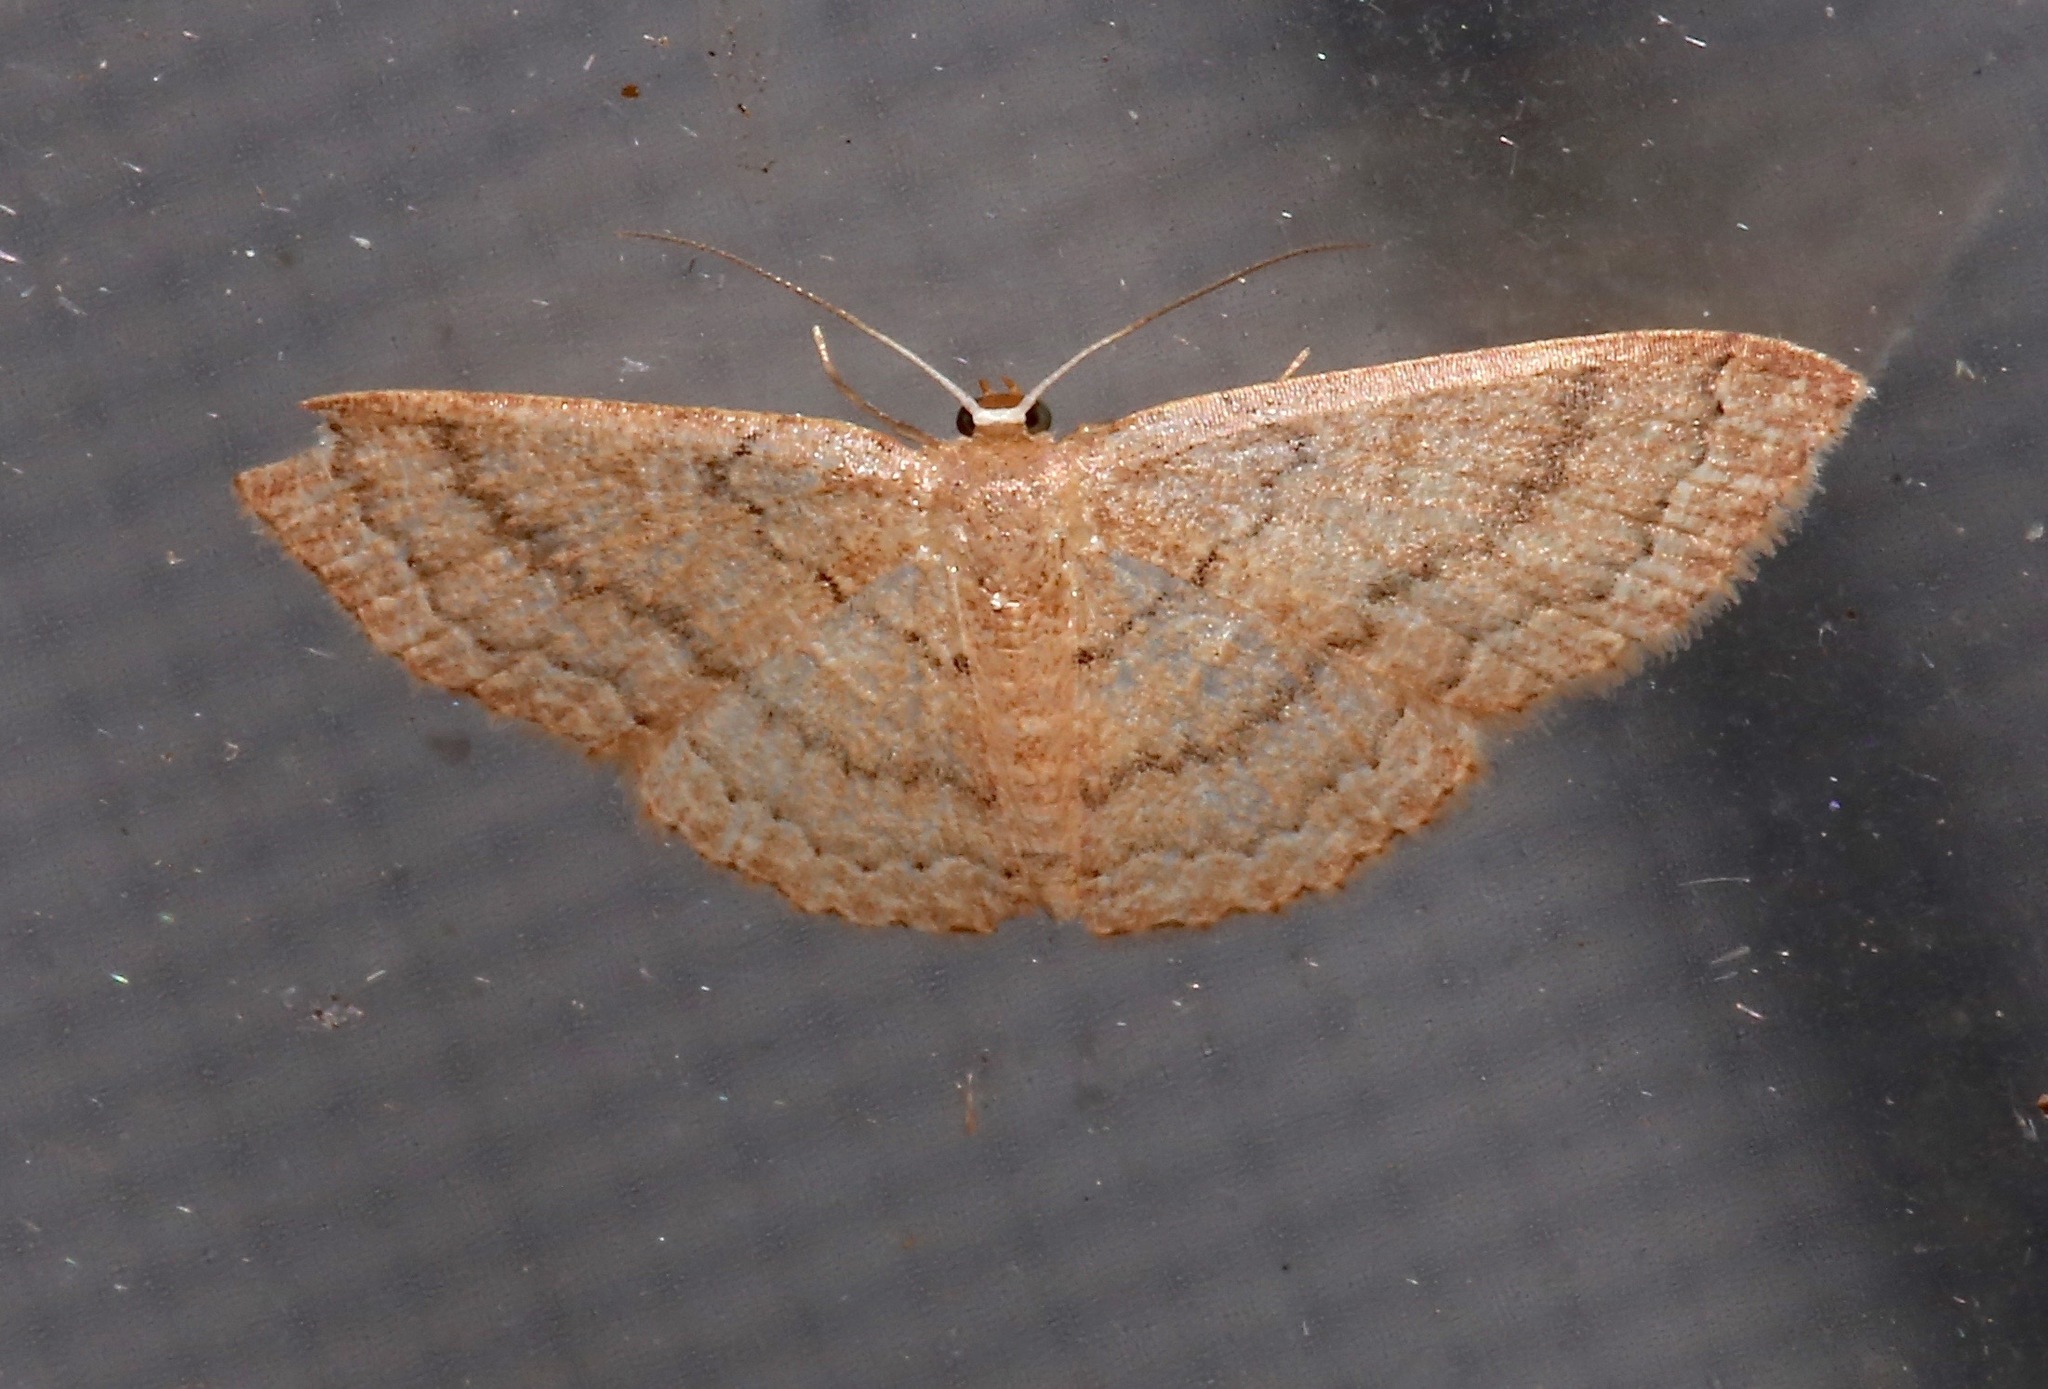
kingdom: Animalia
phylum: Arthropoda
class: Insecta
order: Lepidoptera
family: Geometridae
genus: Pleuroprucha
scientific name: Pleuroprucha insulsaria
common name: Common tan wave
